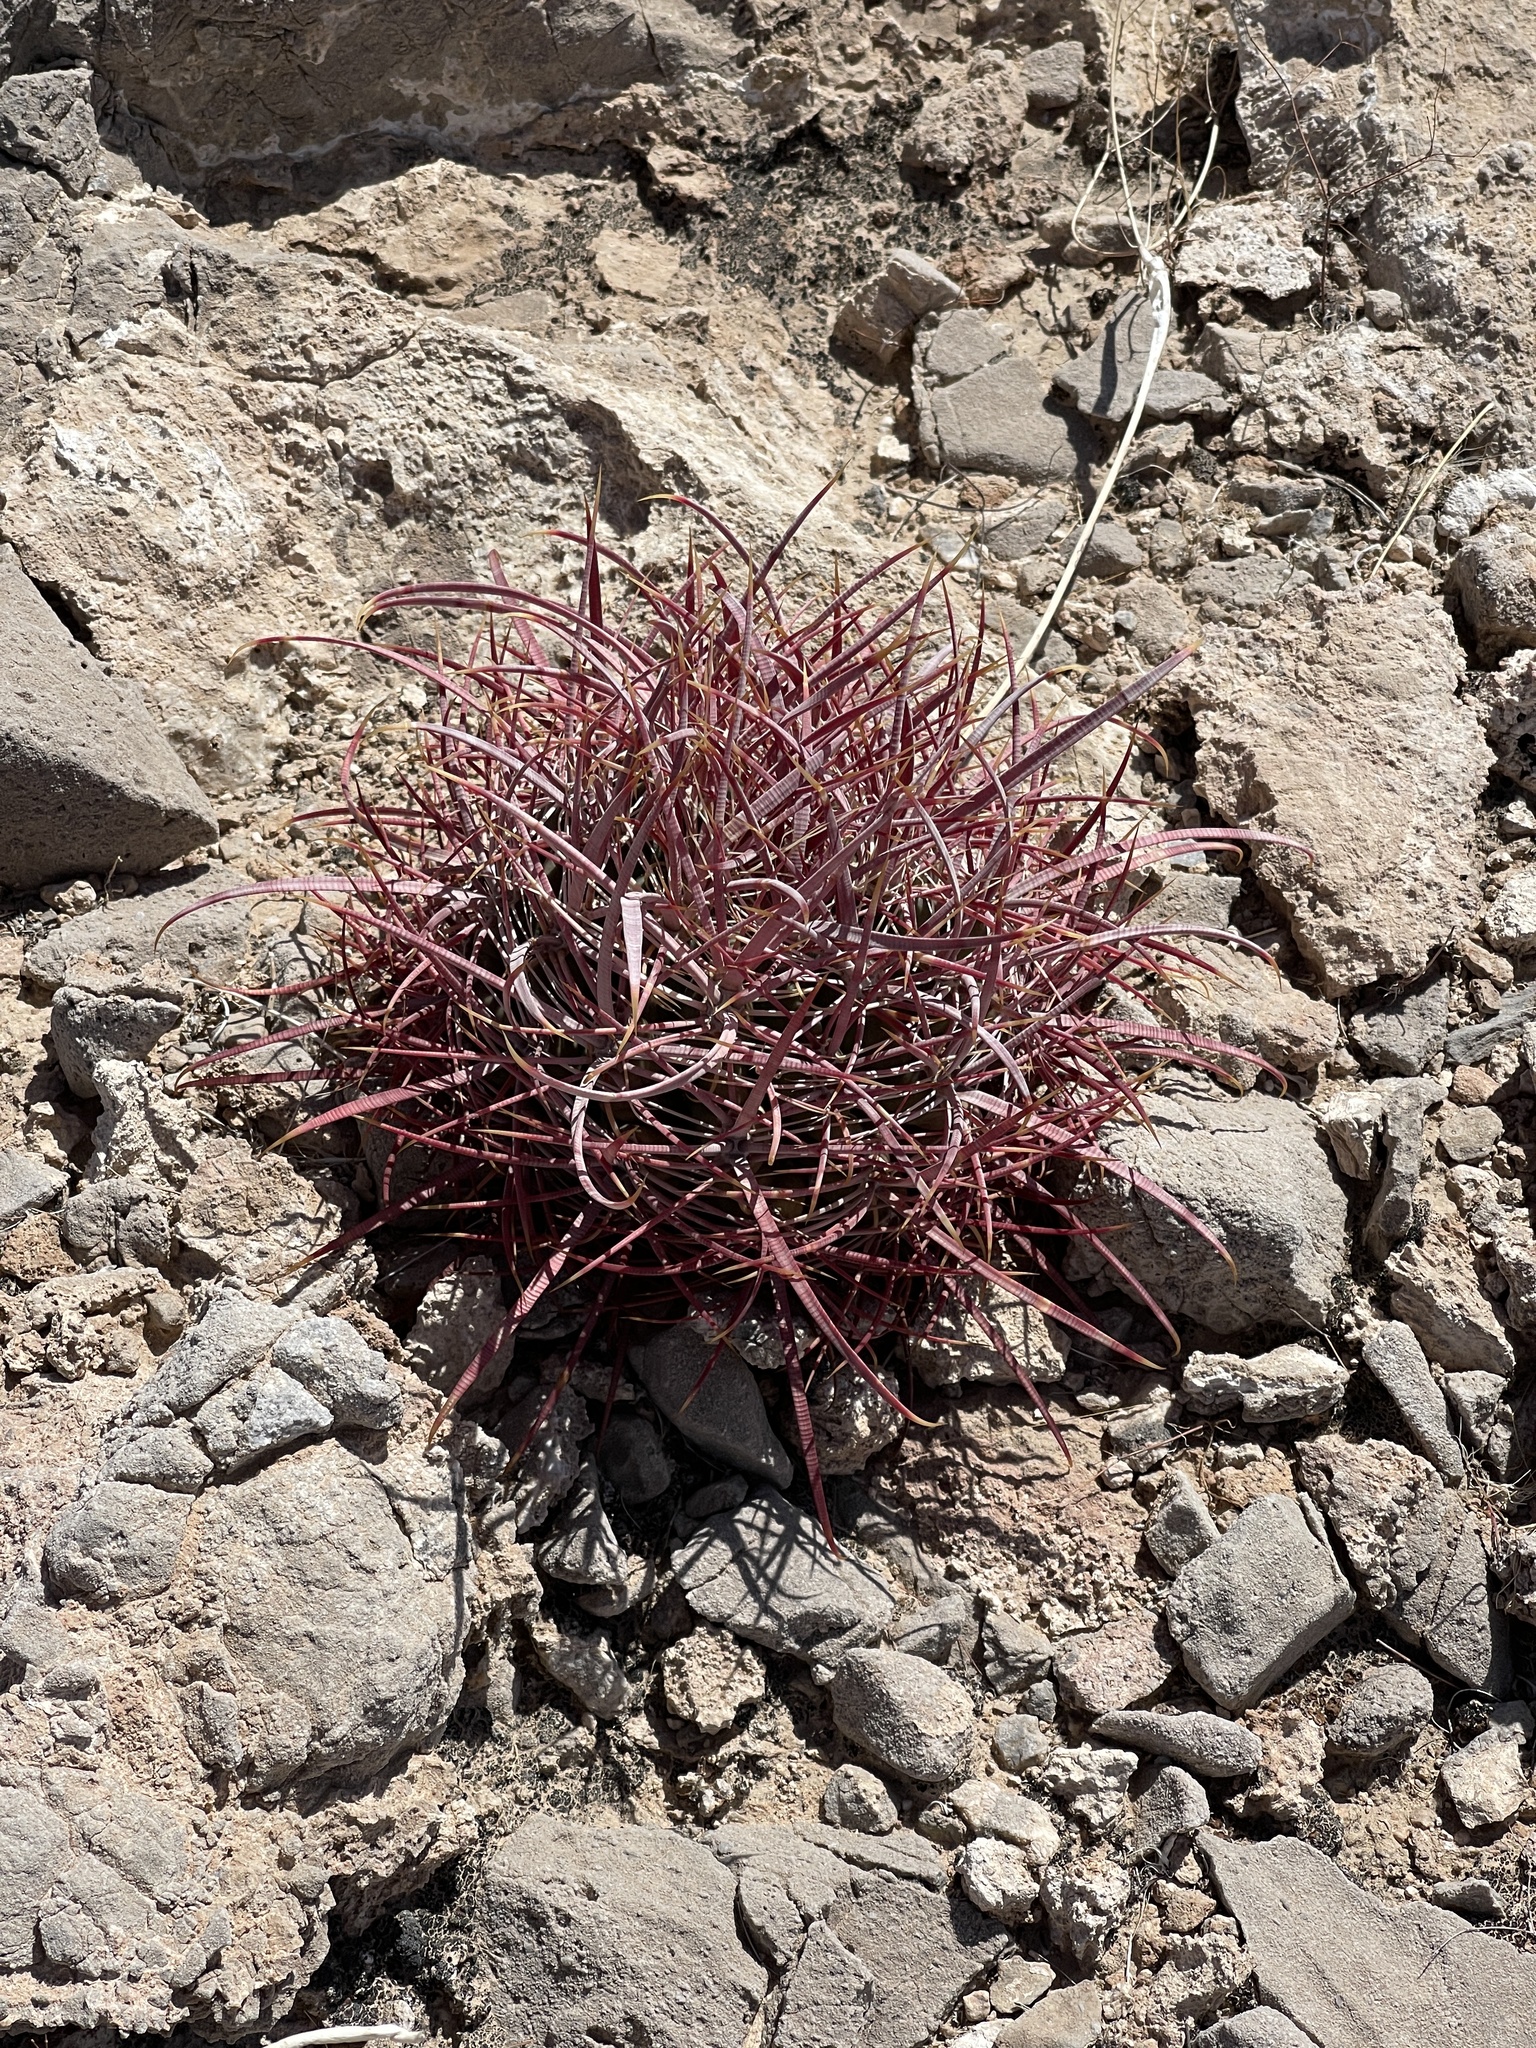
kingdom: Plantae
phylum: Tracheophyta
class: Magnoliopsida
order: Caryophyllales
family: Cactaceae
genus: Ferocactus
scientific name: Ferocactus cylindraceus
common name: California barrel cactus
